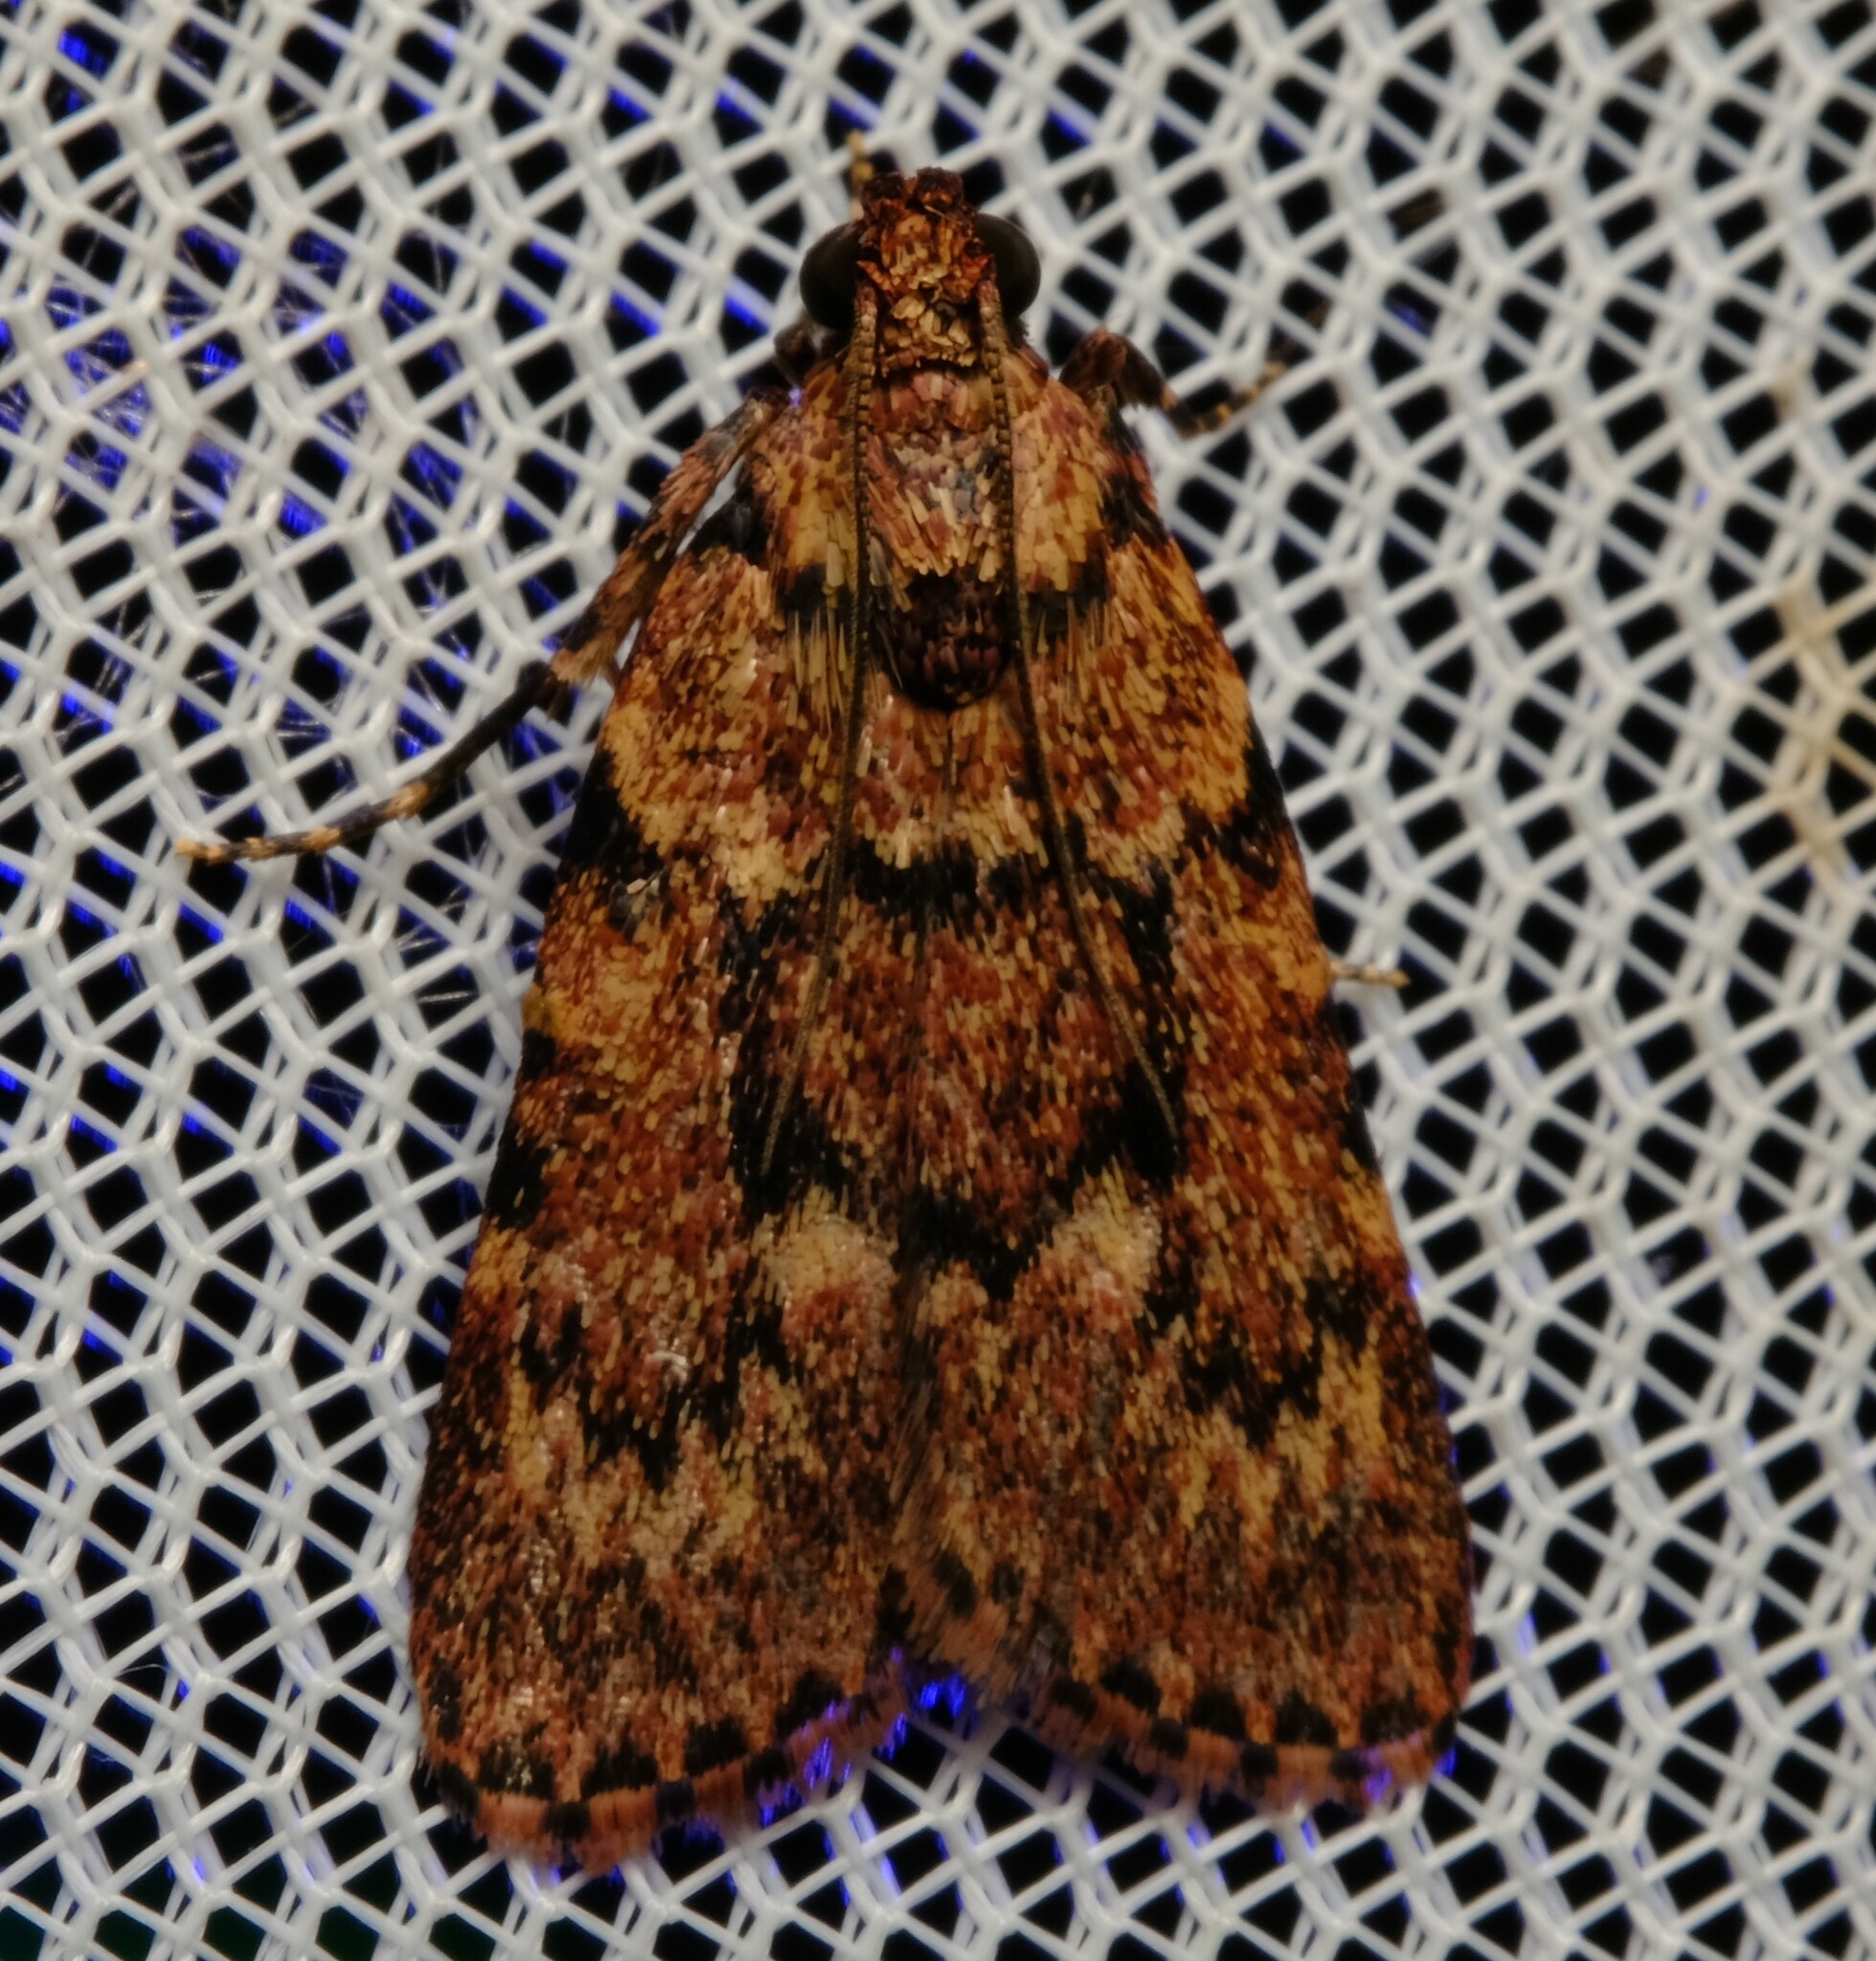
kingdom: Animalia
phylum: Arthropoda
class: Insecta
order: Lepidoptera
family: Pyralidae
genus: Mimaglossa
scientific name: Mimaglossa nauplialis
